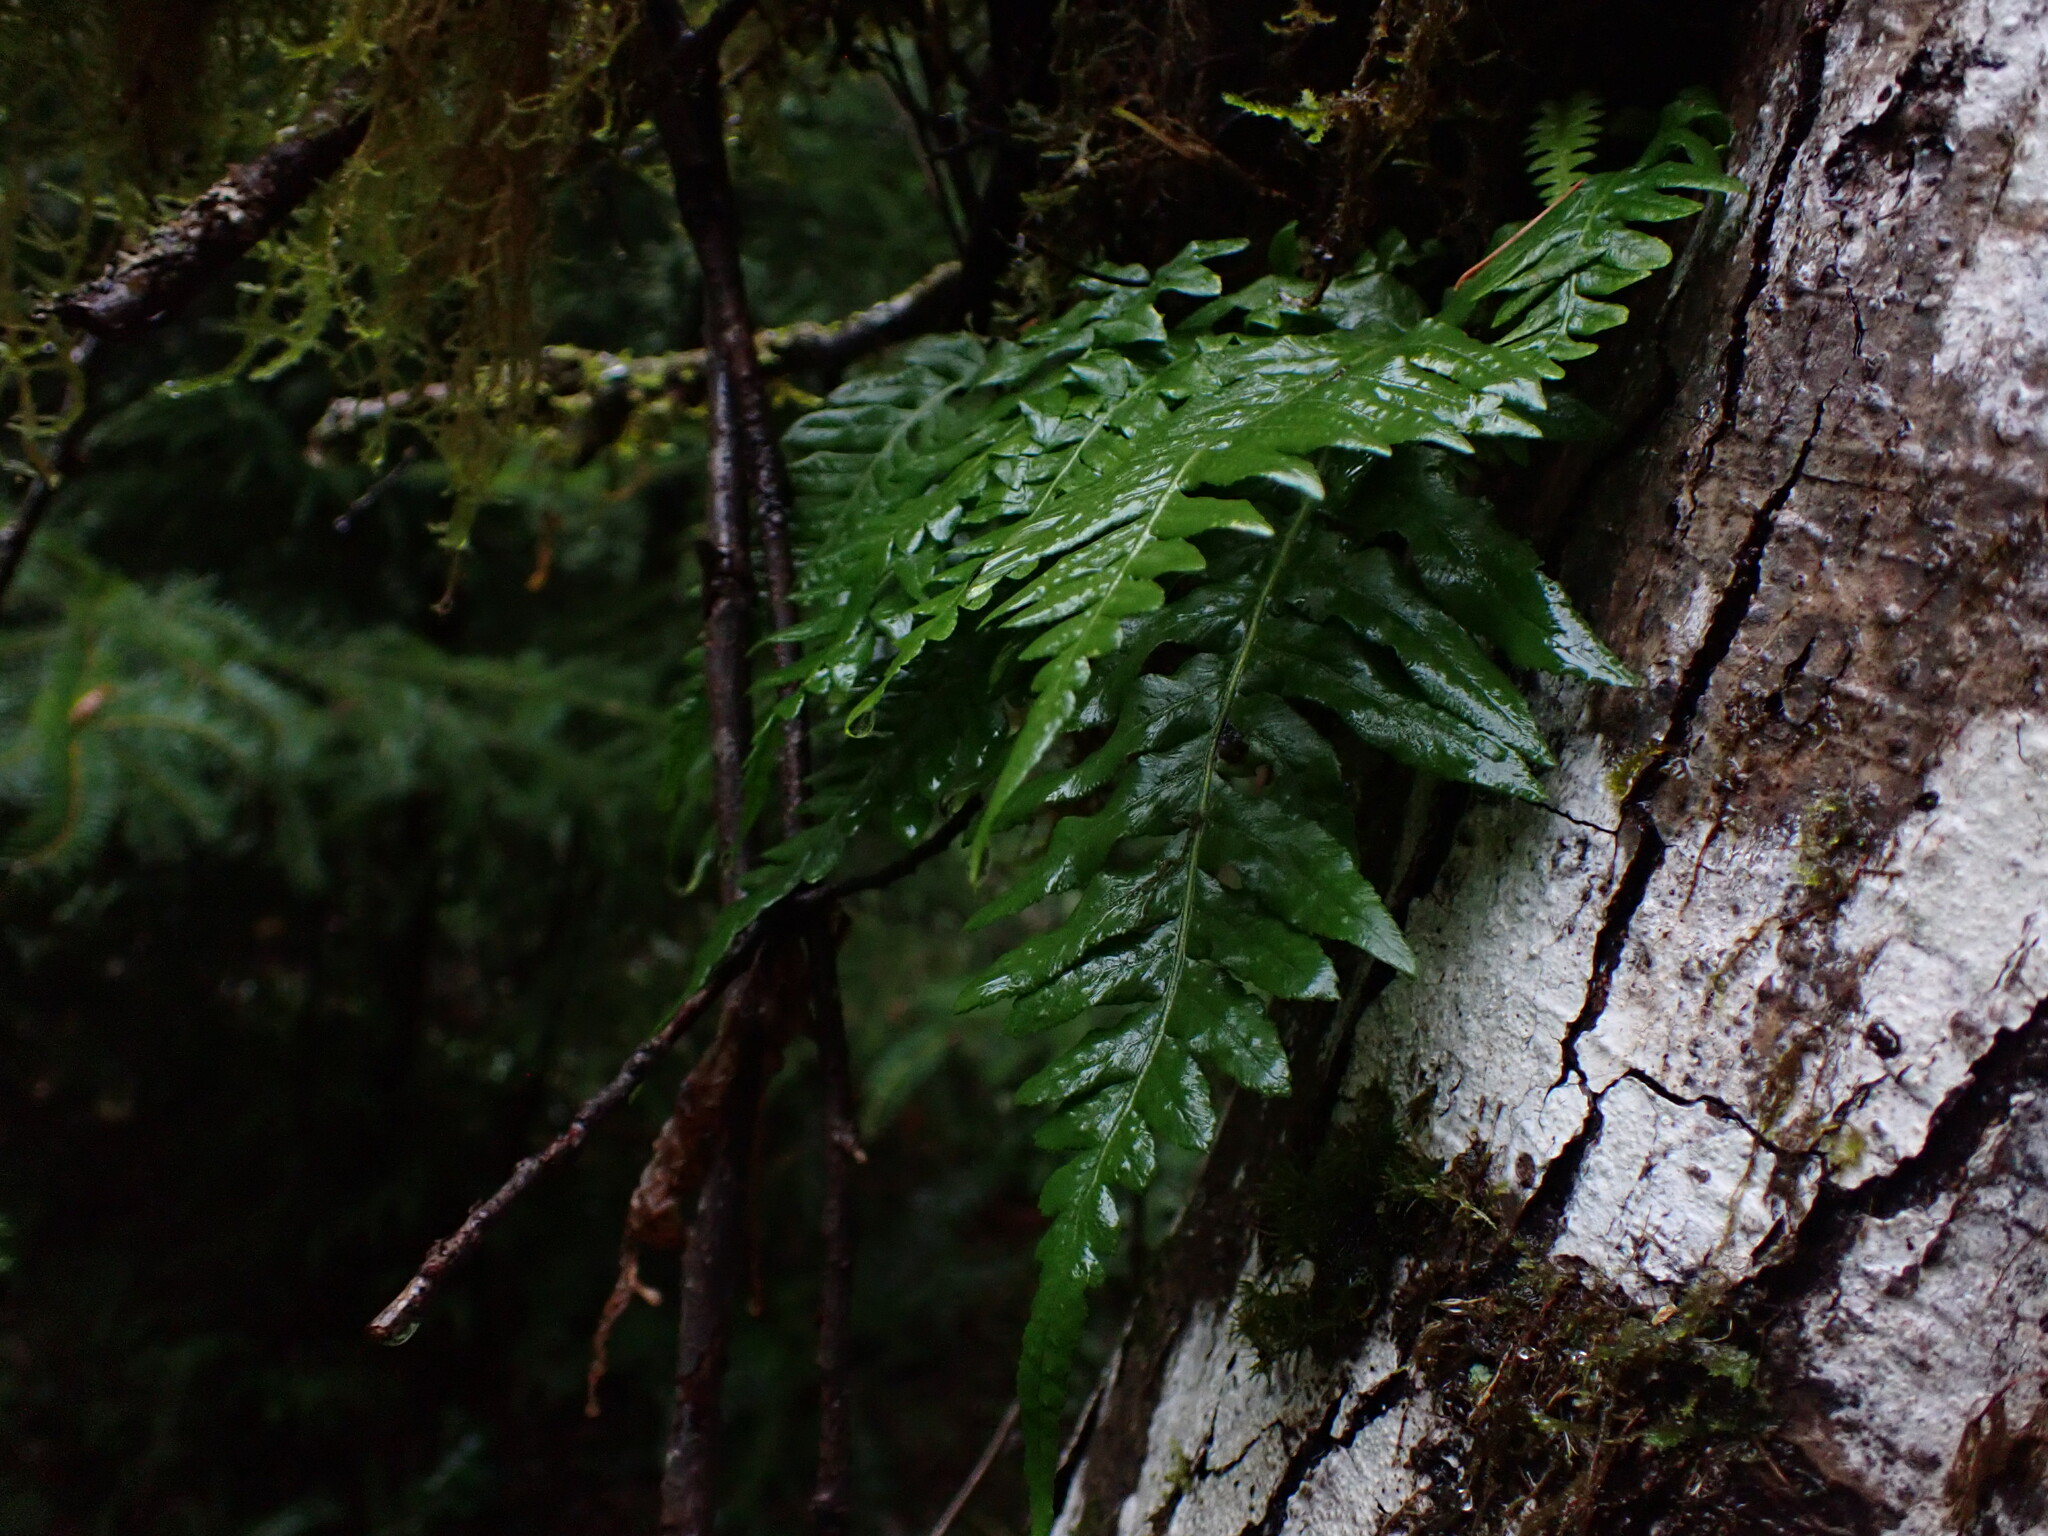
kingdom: Plantae
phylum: Tracheophyta
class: Polypodiopsida
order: Polypodiales
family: Polypodiaceae
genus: Polypodium
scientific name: Polypodium glycyrrhiza
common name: Licorice fern
